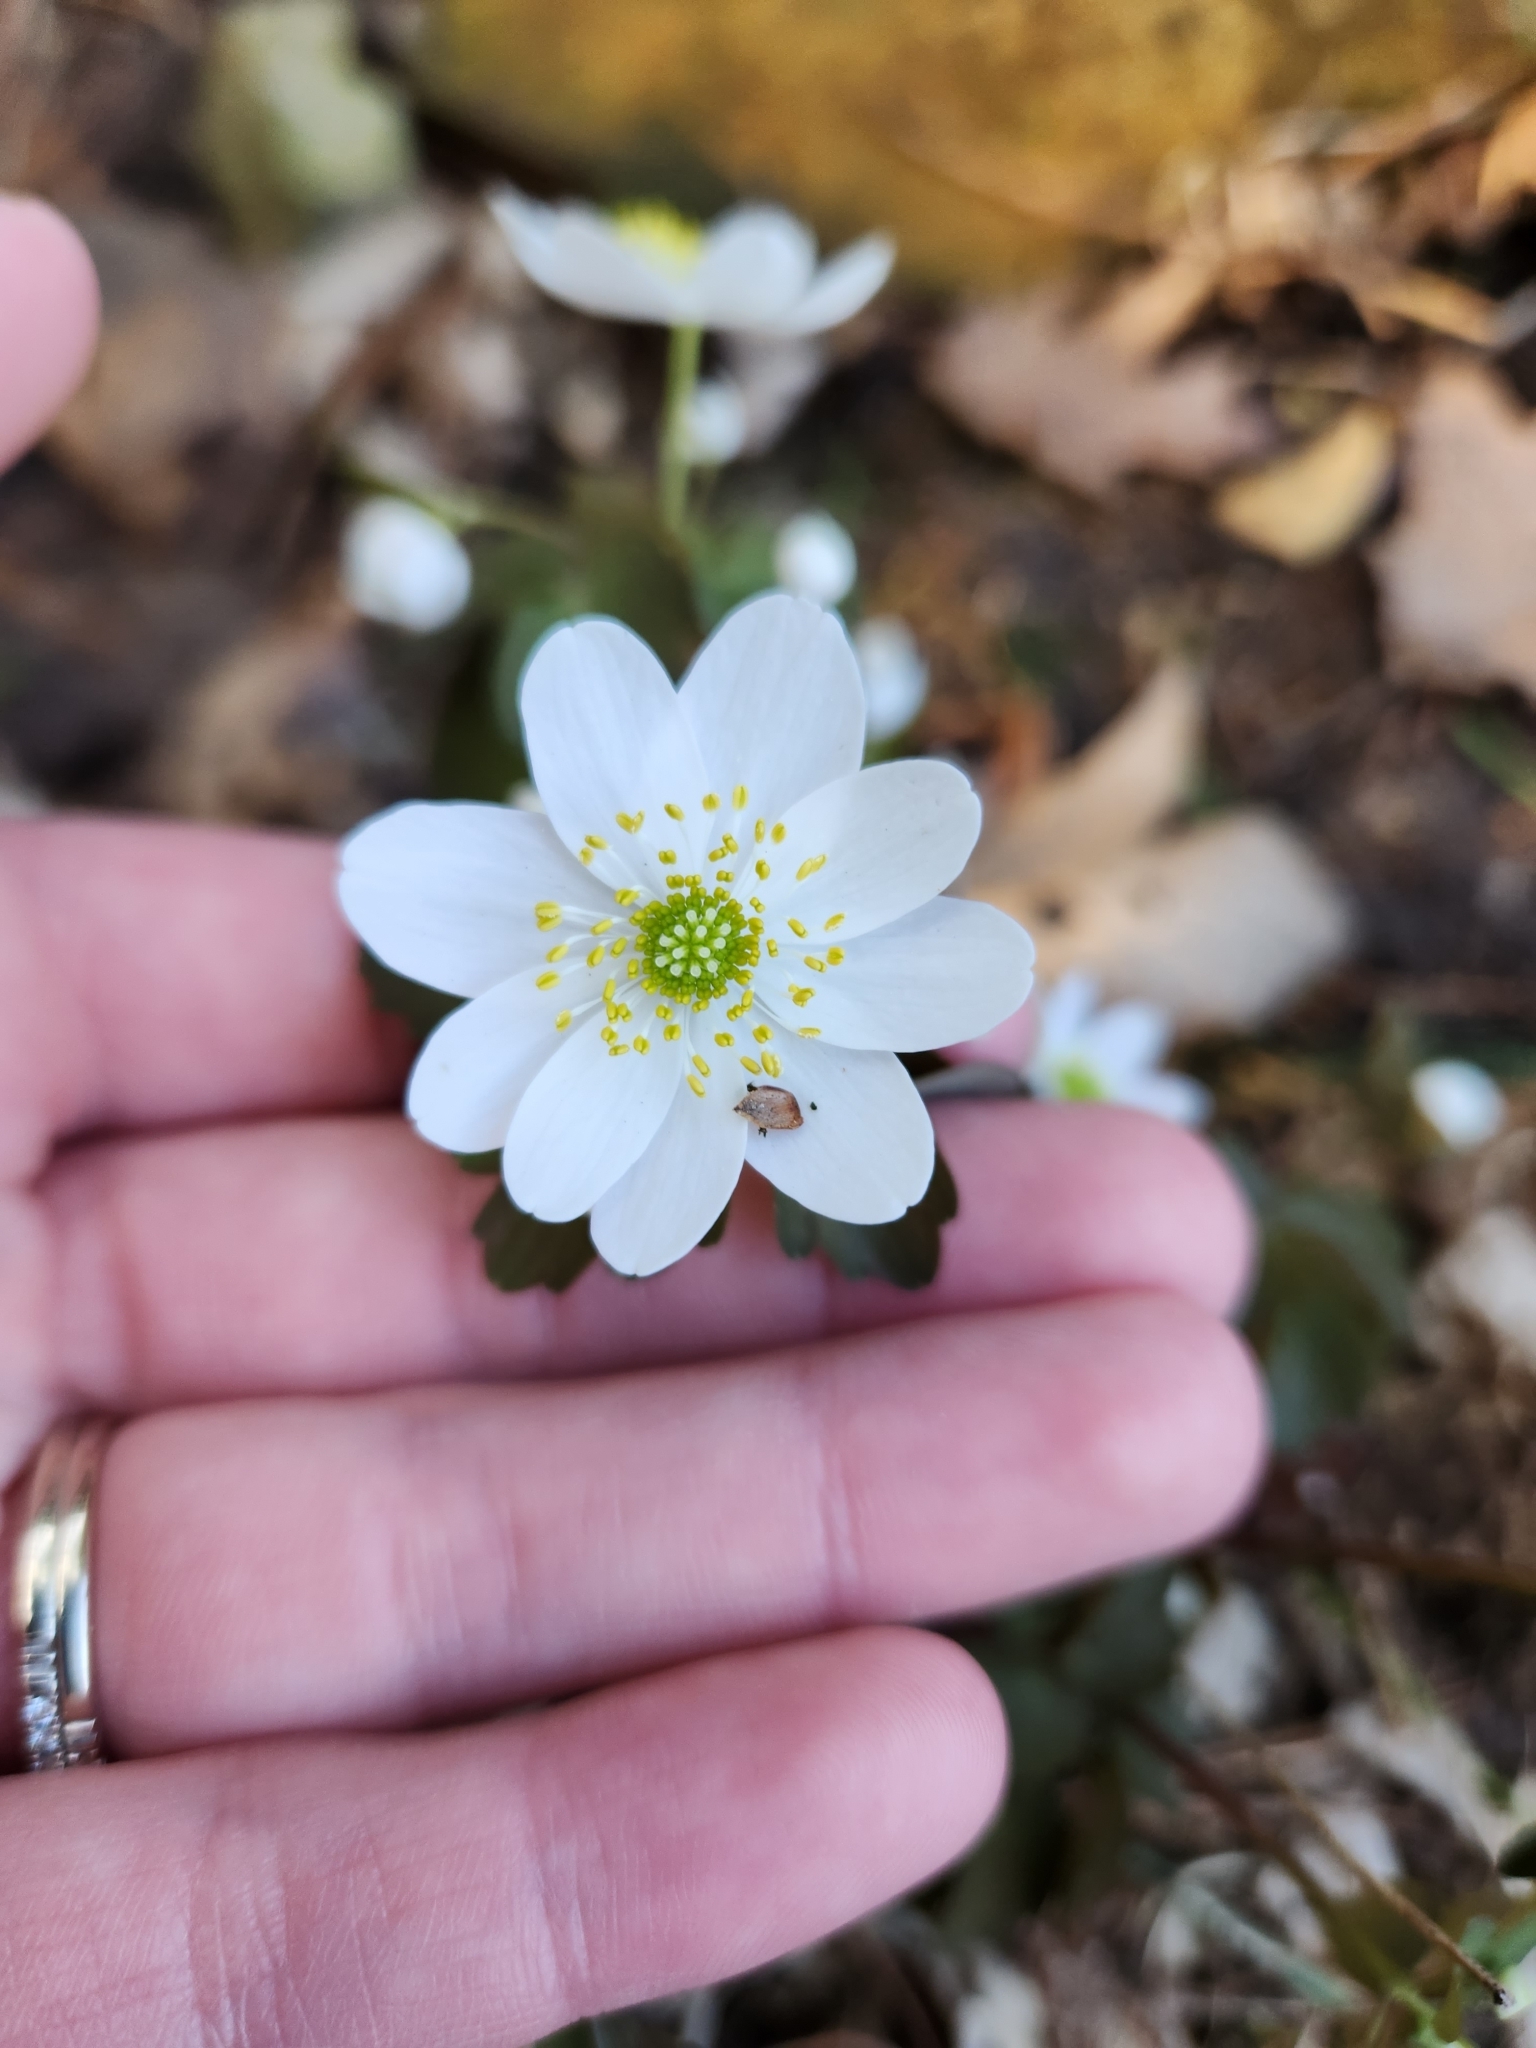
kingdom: Plantae
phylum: Tracheophyta
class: Magnoliopsida
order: Ranunculales
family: Ranunculaceae
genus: Thalictrum
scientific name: Thalictrum thalictroides
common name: Rue-anemone
